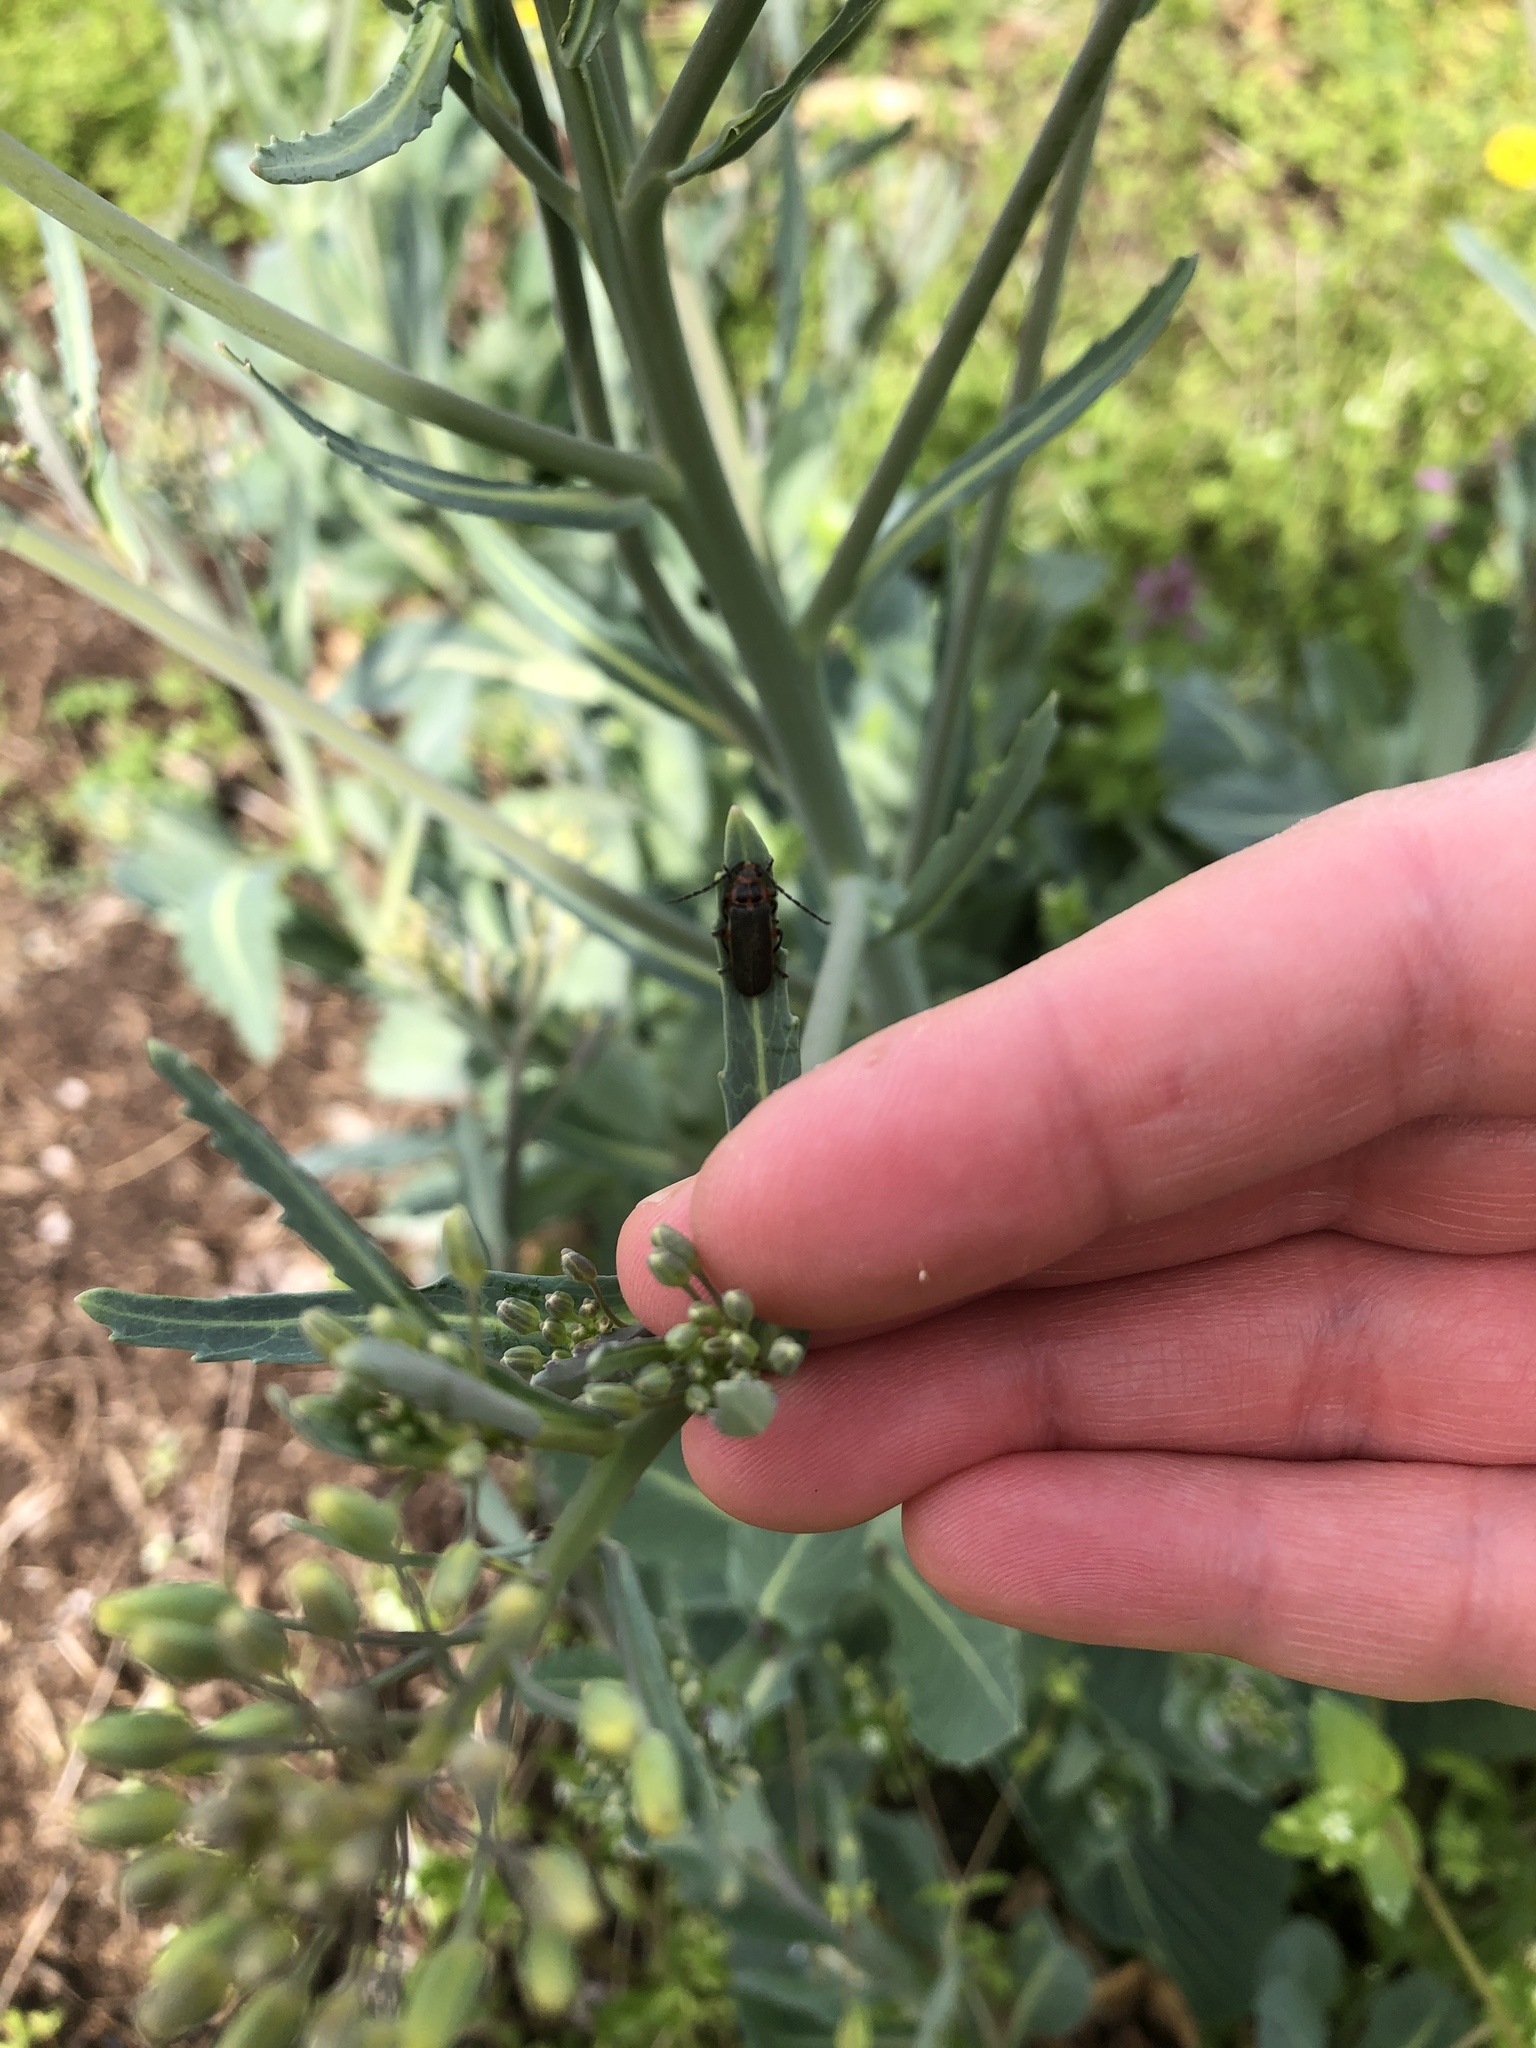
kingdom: Animalia
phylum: Arthropoda
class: Insecta
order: Coleoptera
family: Cantharidae
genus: Atalantycha
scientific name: Atalantycha bilineata
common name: Two-lined leatherwing
